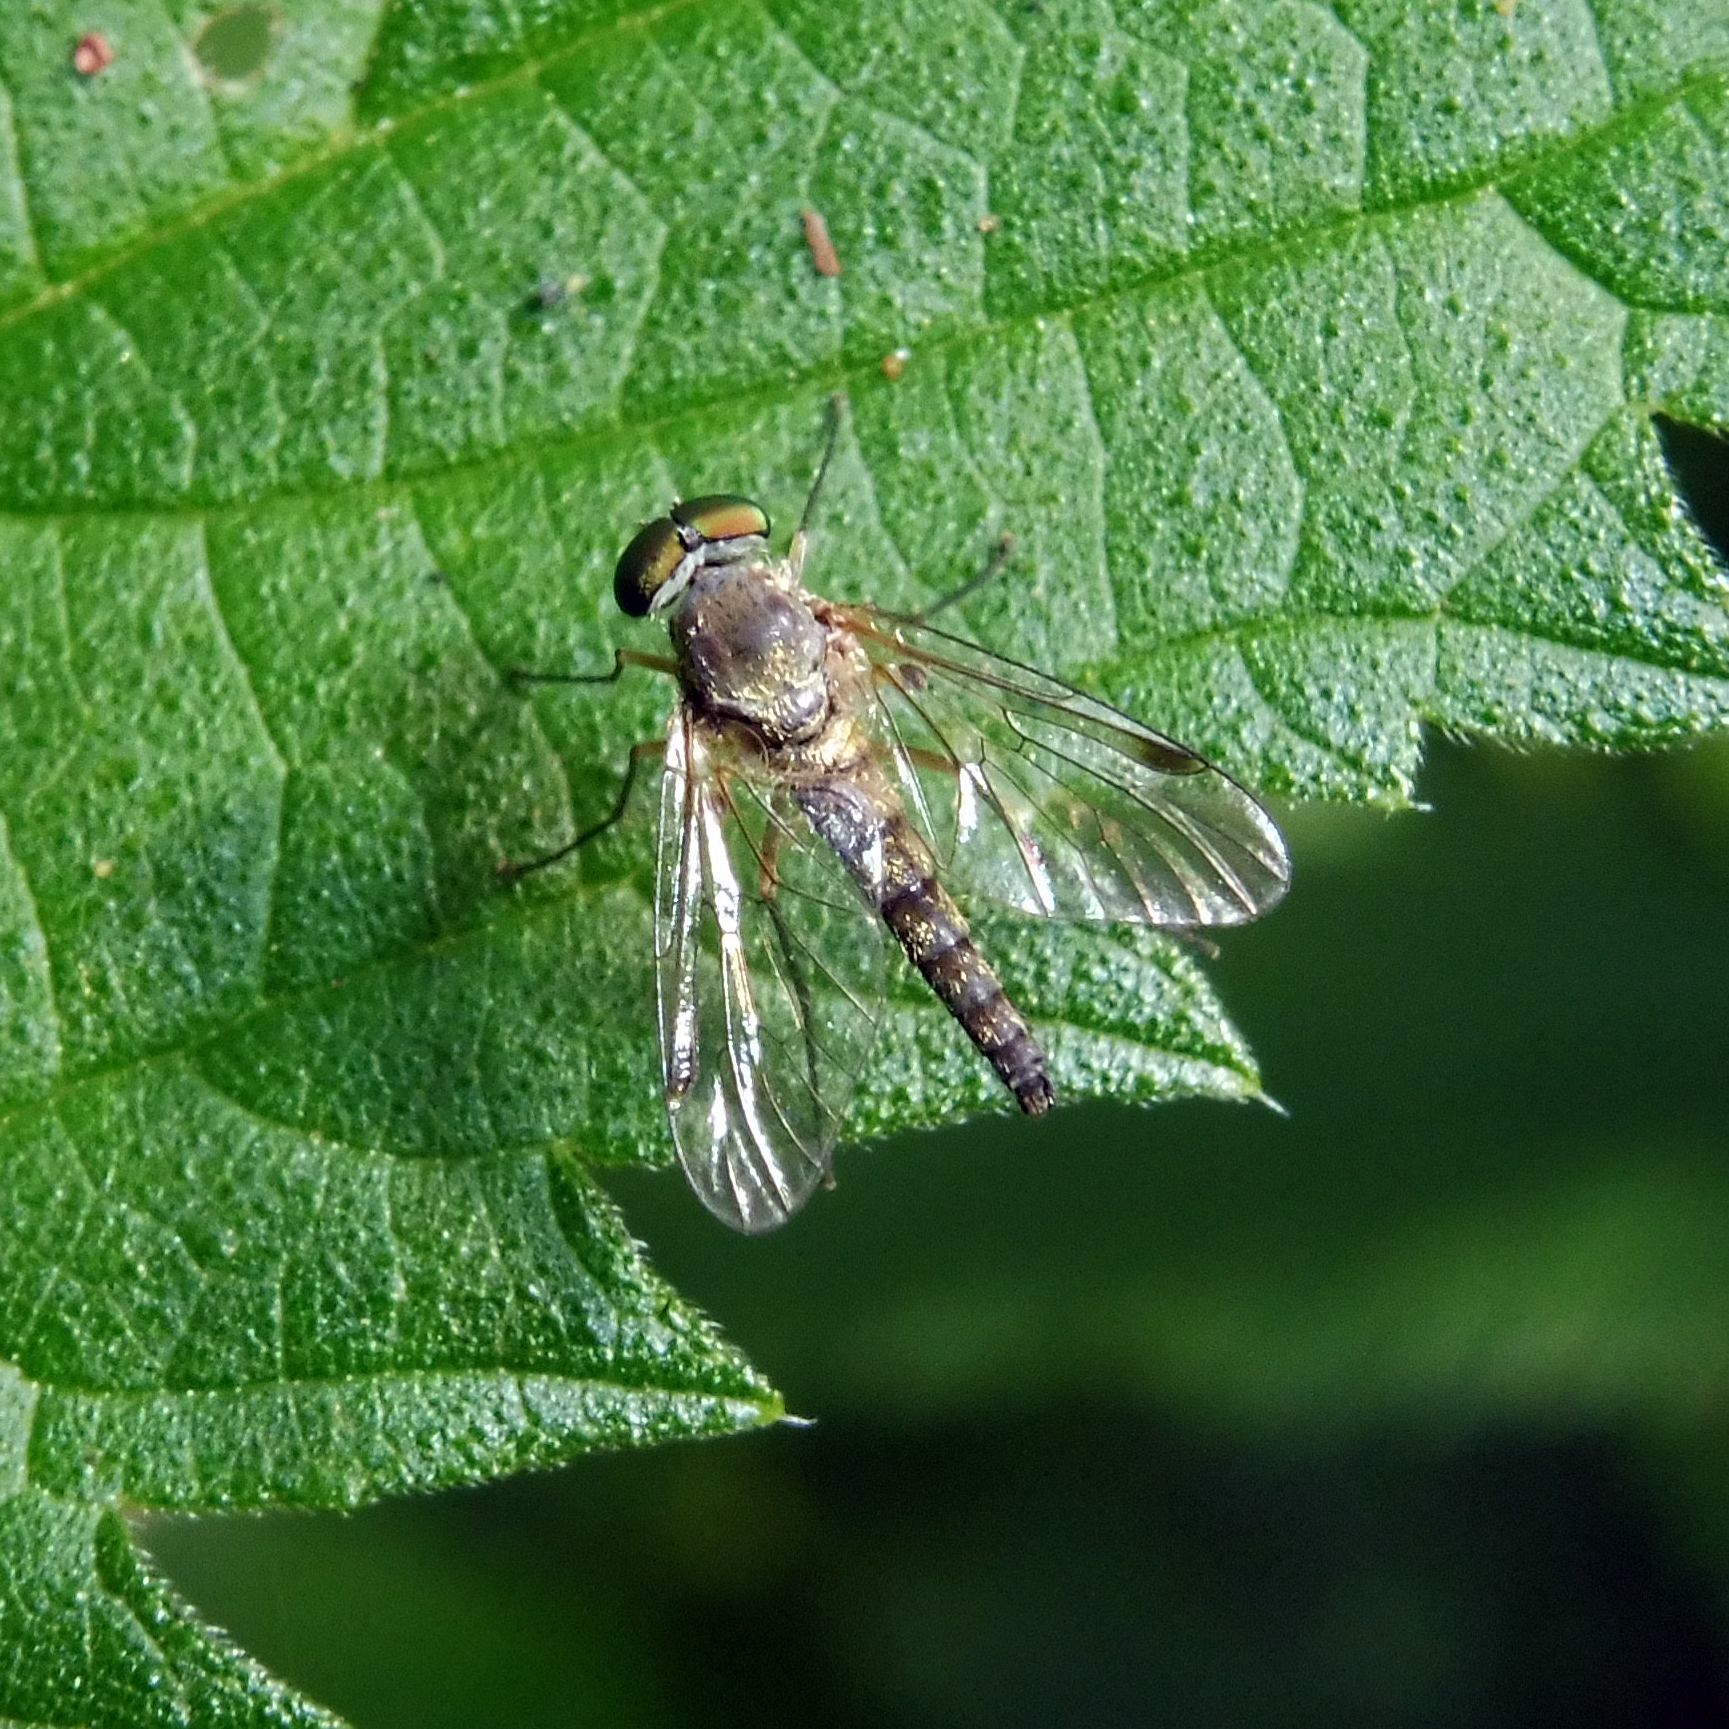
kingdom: Animalia
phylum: Arthropoda
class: Insecta
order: Diptera
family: Rhagionidae
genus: Chrysopilus
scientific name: Chrysopilus asiliformis
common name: Little snipefly
